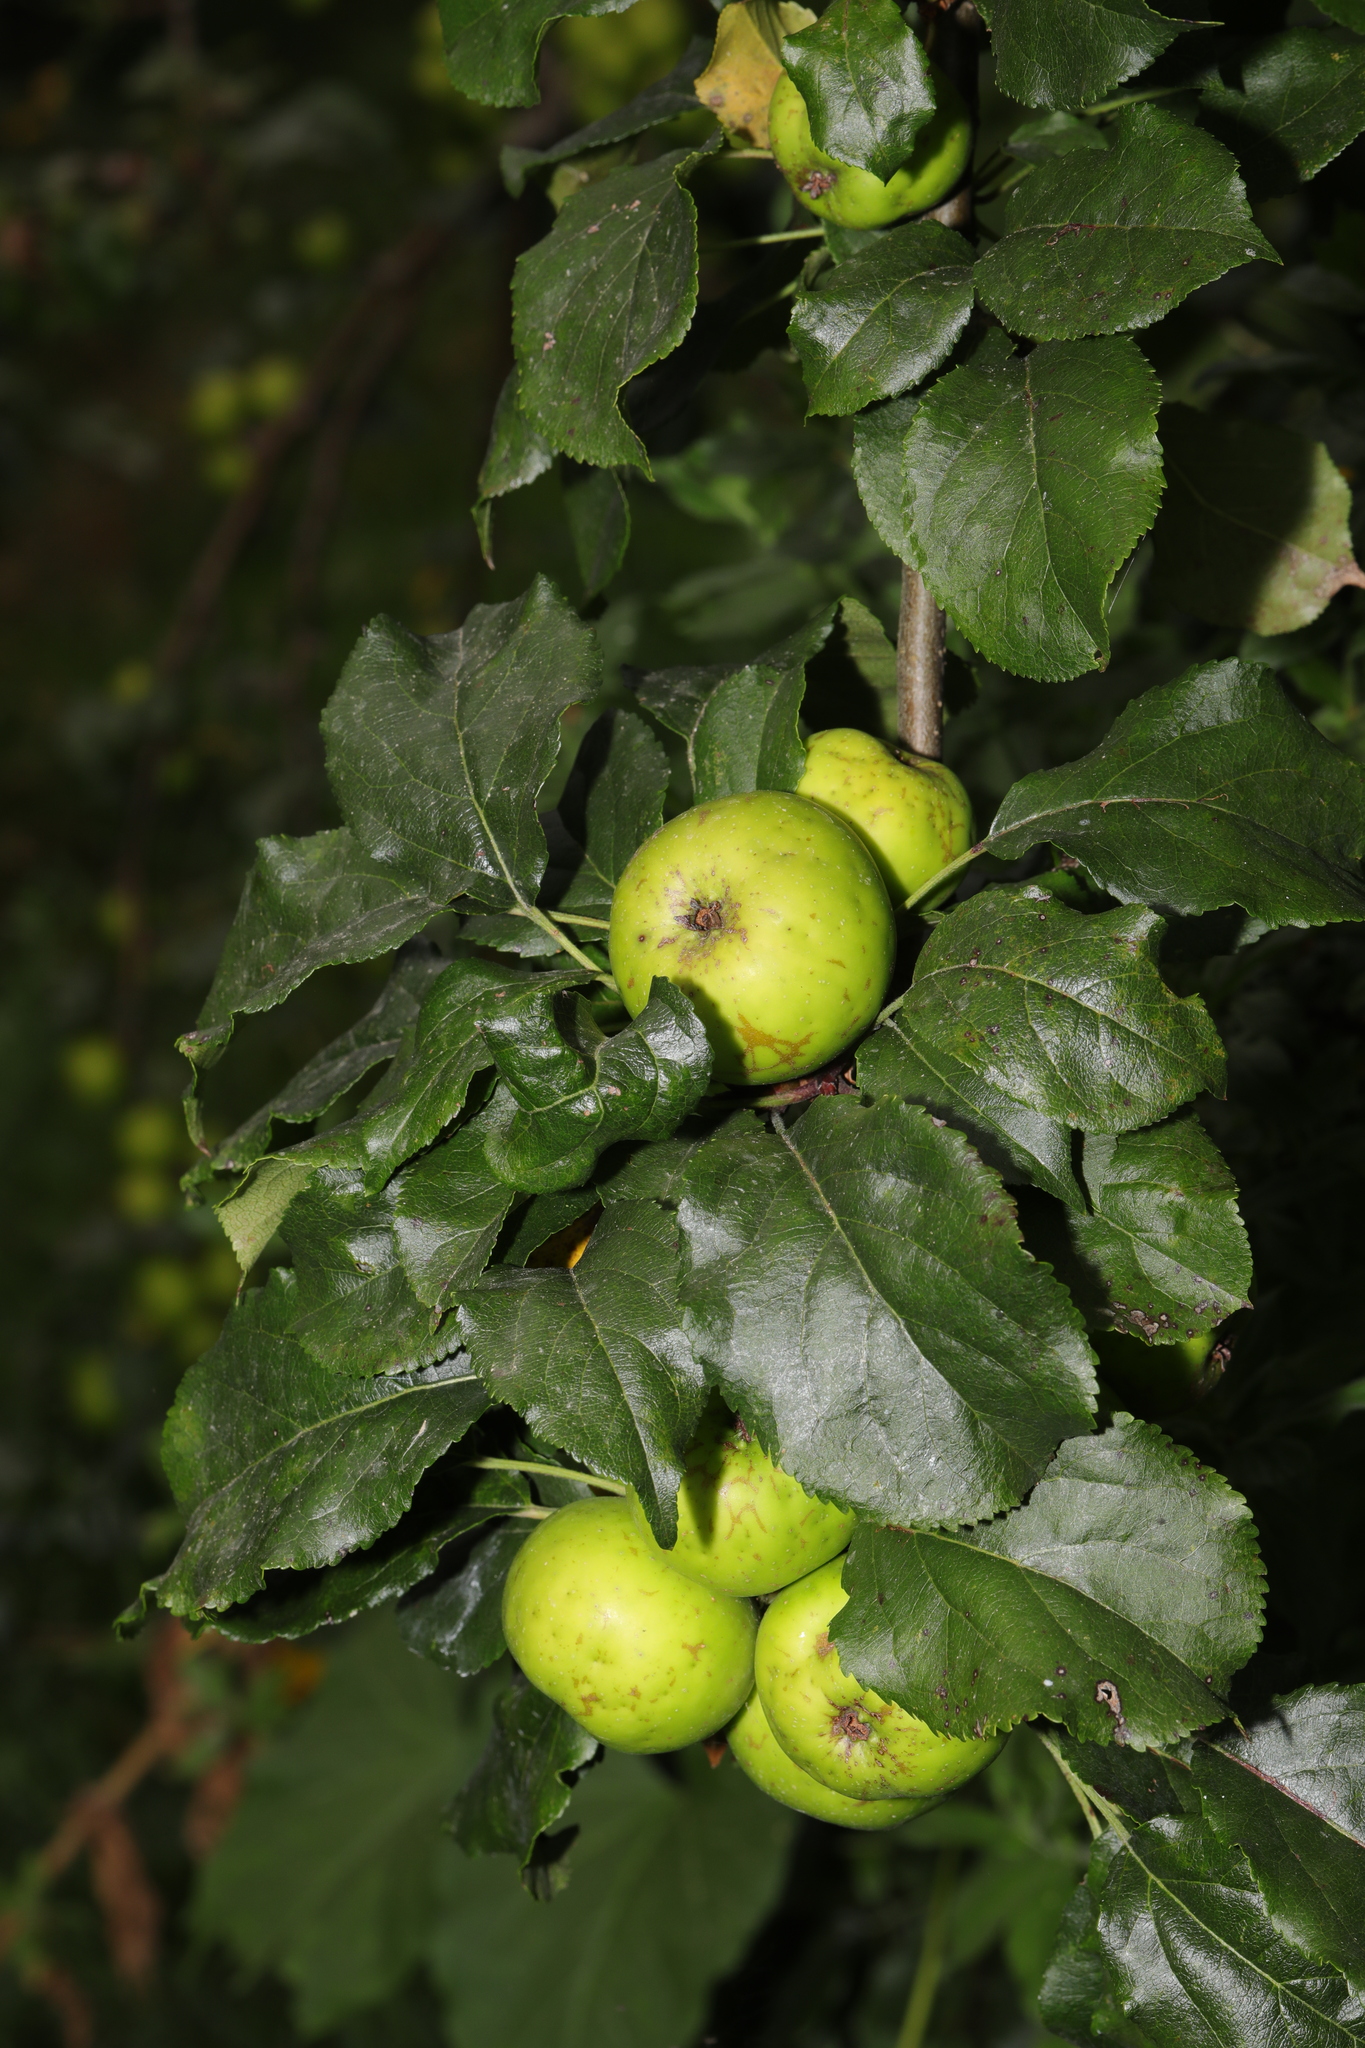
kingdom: Plantae
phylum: Tracheophyta
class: Magnoliopsida
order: Rosales
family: Rosaceae
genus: Malus
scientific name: Malus domestica
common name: Apple
